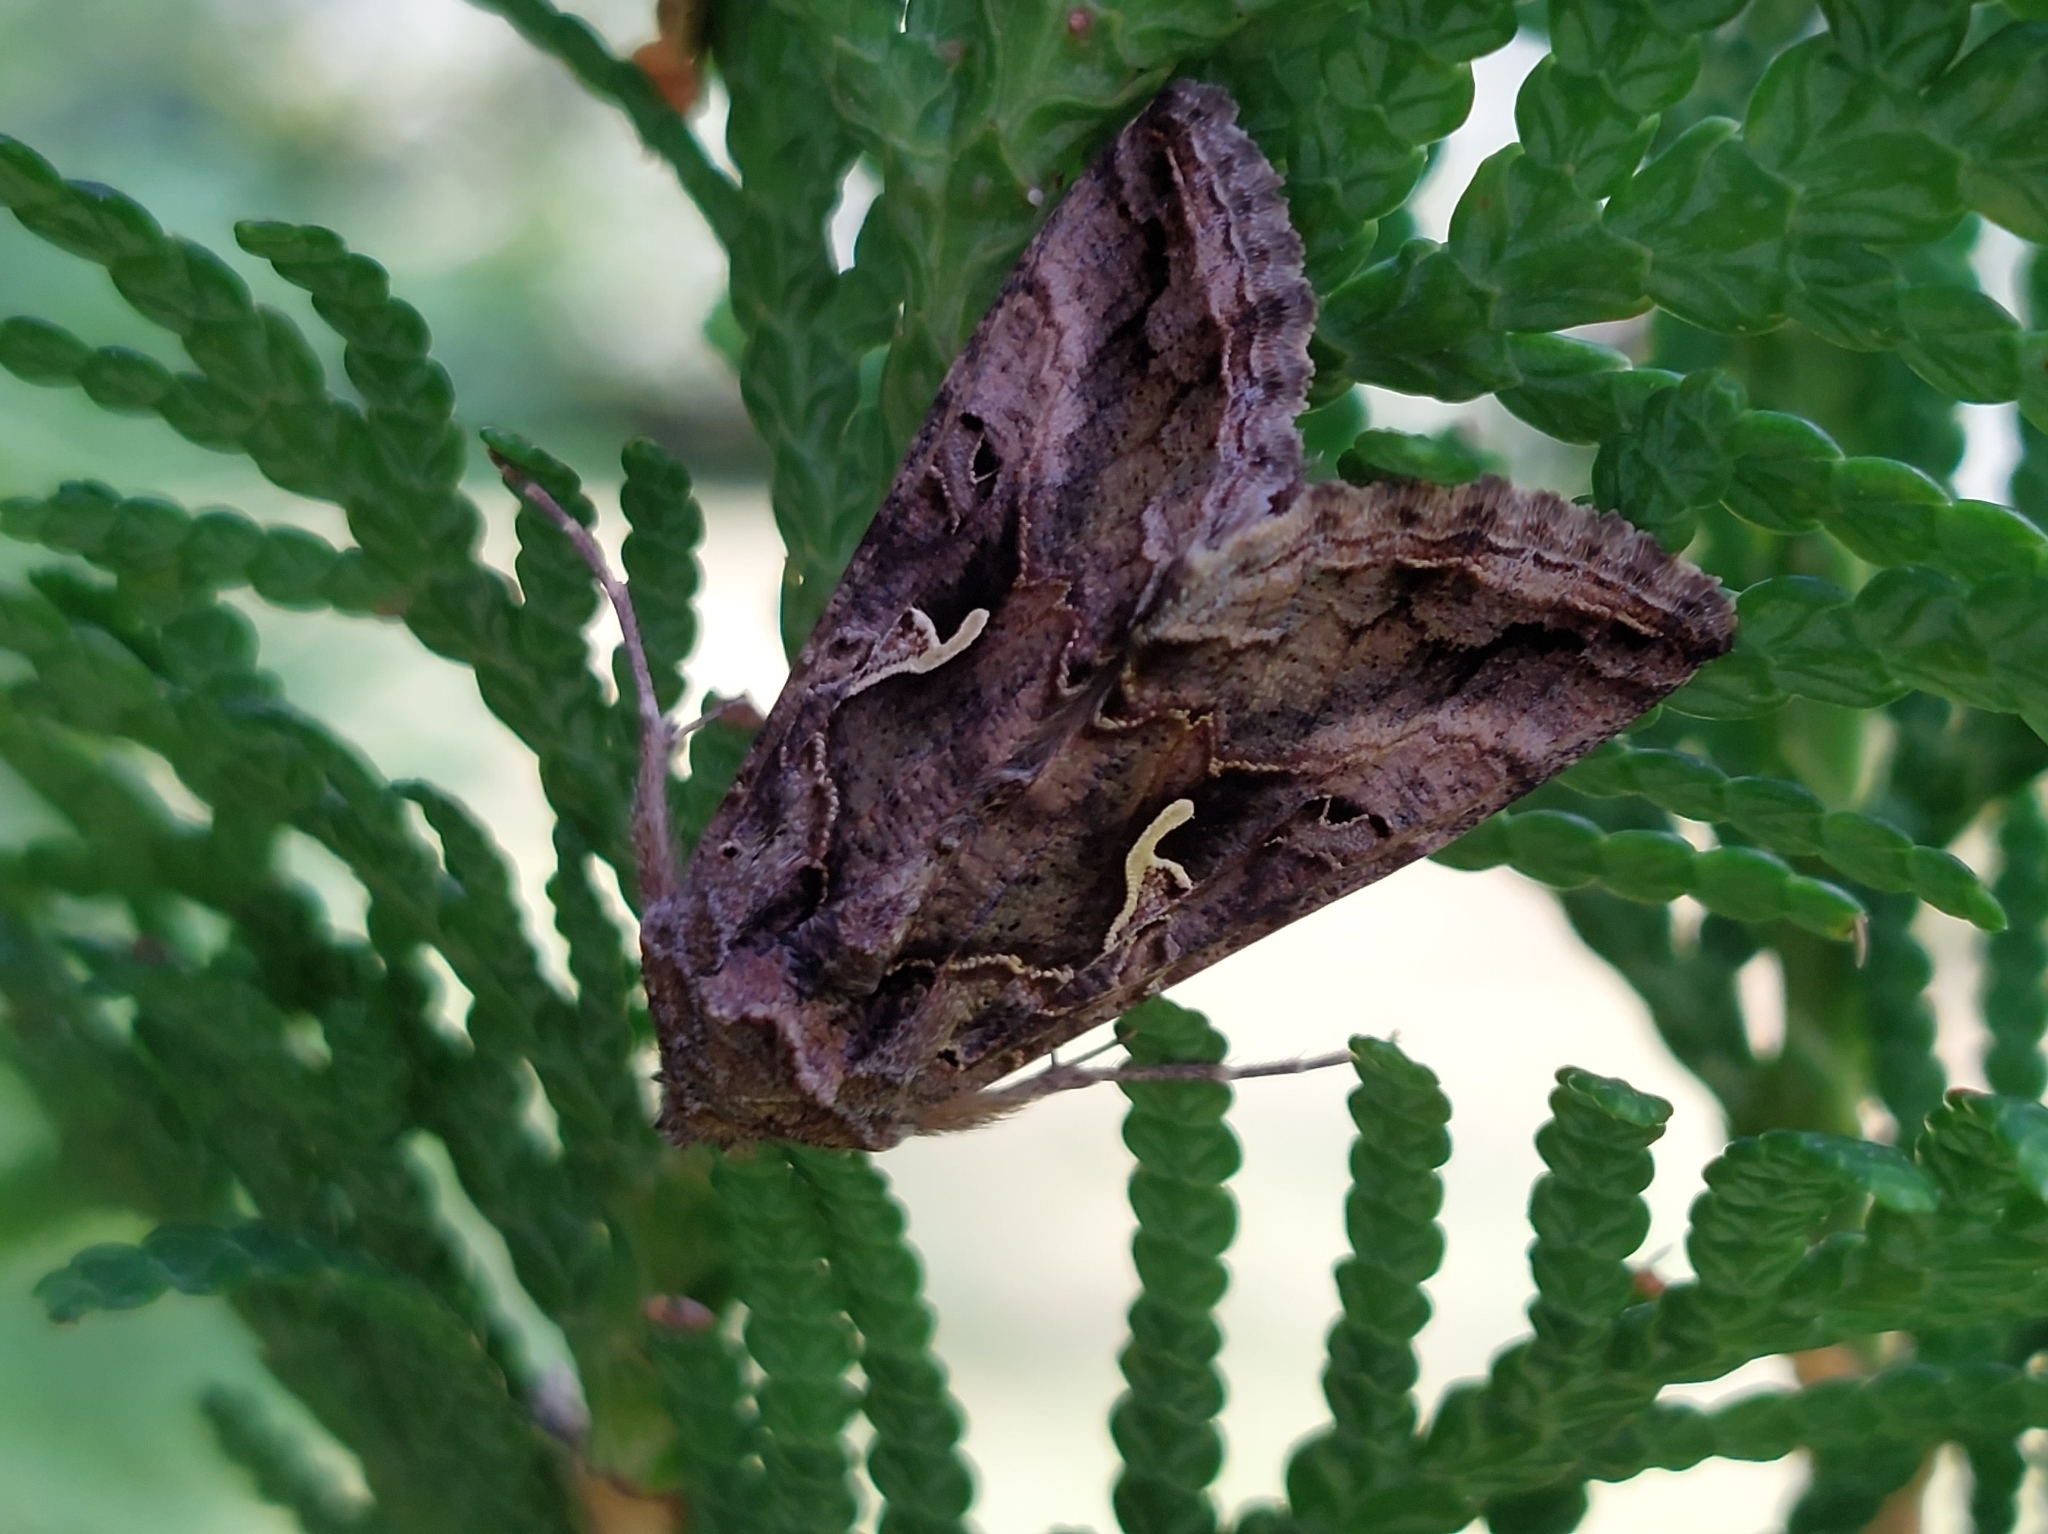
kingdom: Animalia
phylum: Arthropoda
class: Insecta
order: Lepidoptera
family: Noctuidae
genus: Autographa
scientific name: Autographa gamma
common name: Silver y
